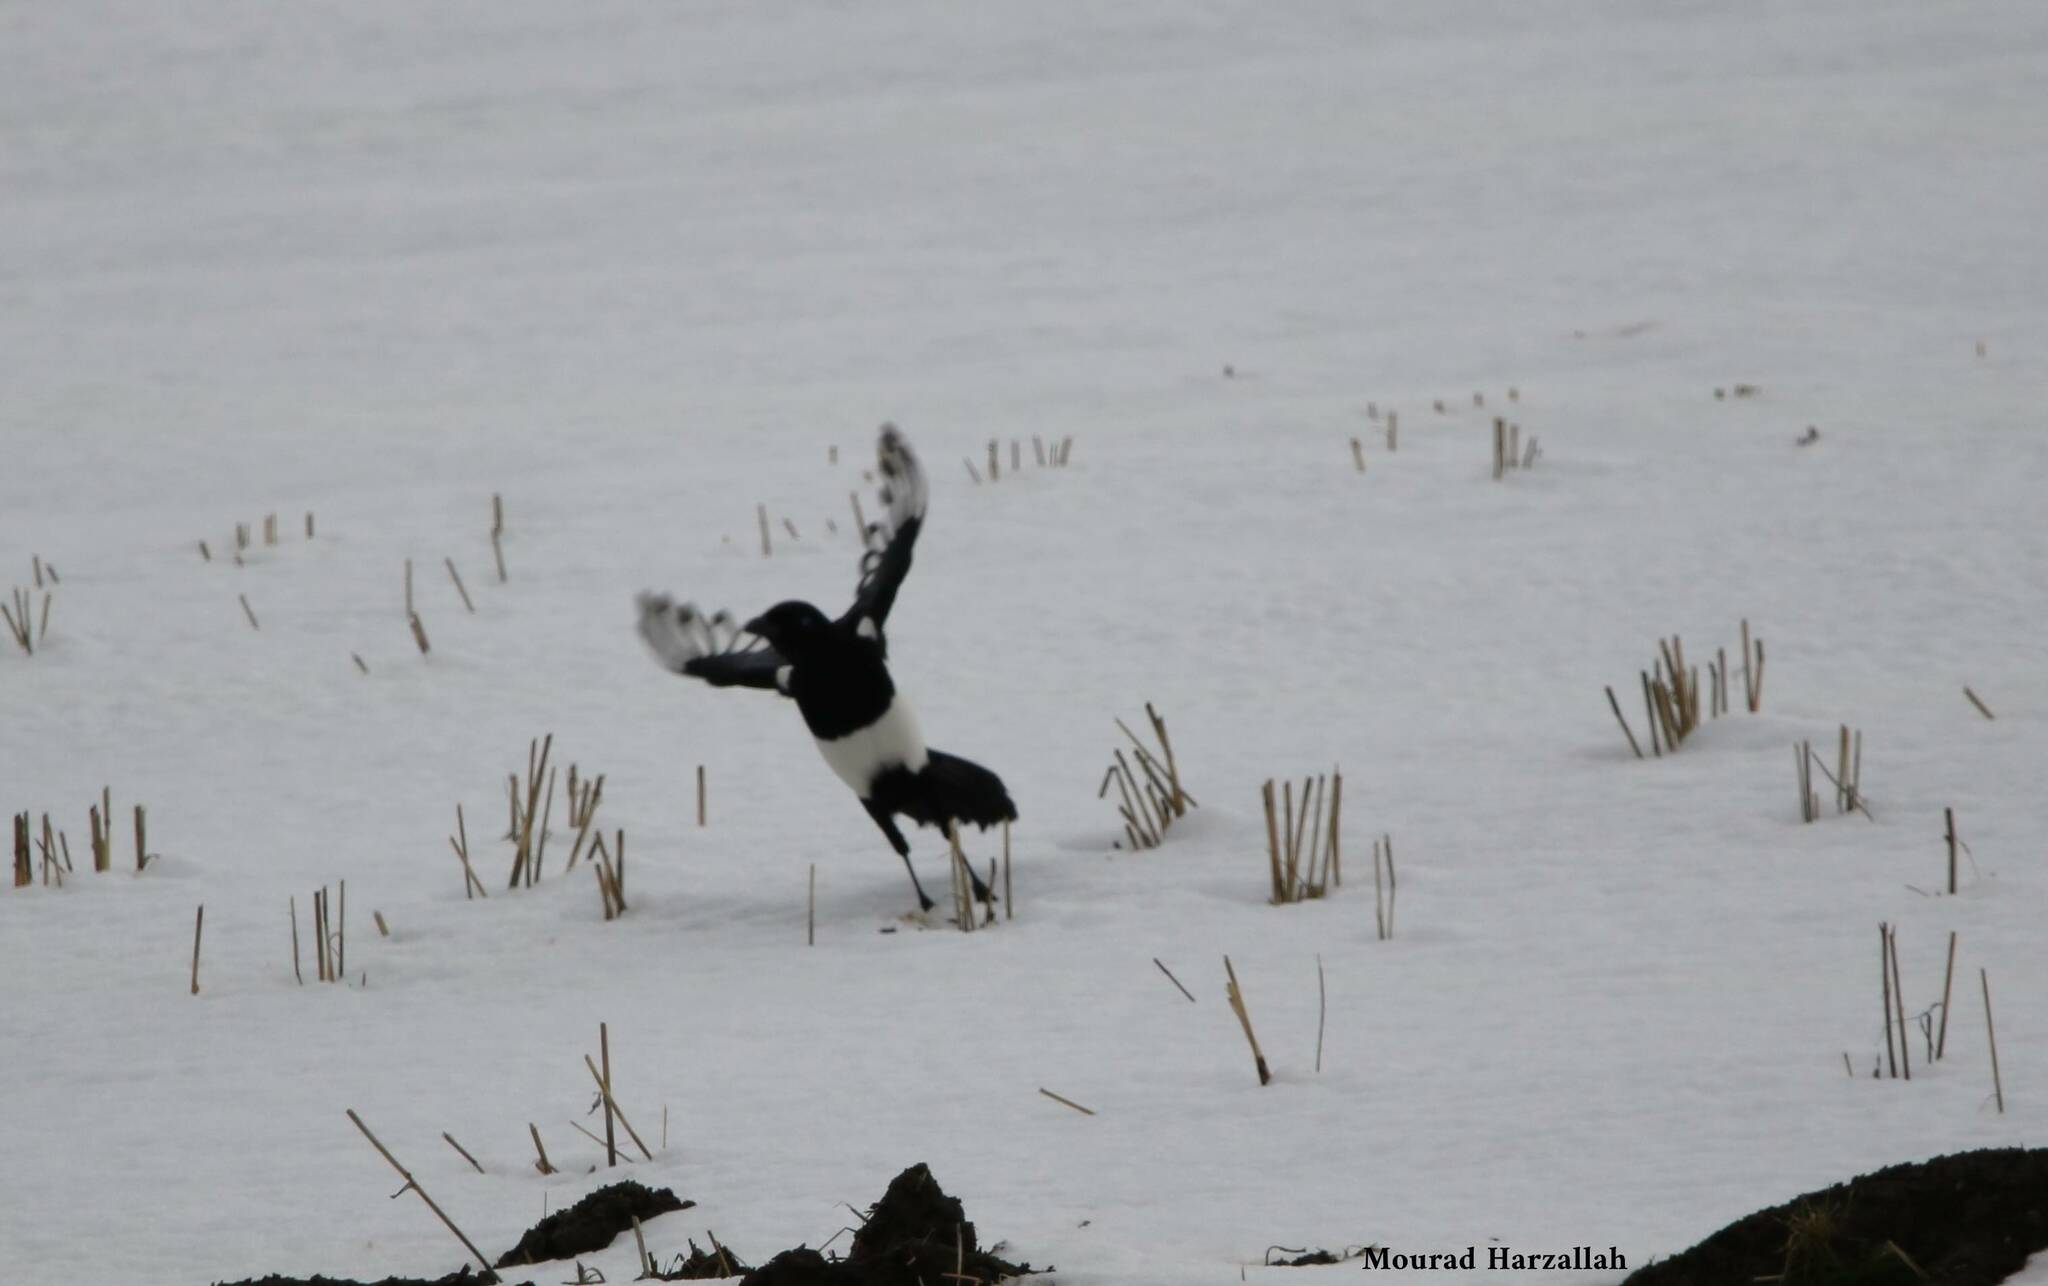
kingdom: Animalia
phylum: Chordata
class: Aves
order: Passeriformes
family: Corvidae
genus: Pica
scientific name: Pica mauritanica
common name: Maghreb magpie
